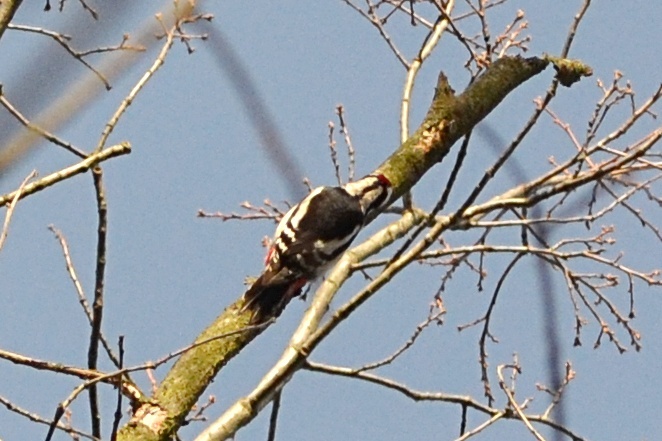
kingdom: Animalia
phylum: Chordata
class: Aves
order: Piciformes
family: Picidae
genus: Dendrocopos
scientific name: Dendrocopos major
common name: Great spotted woodpecker
